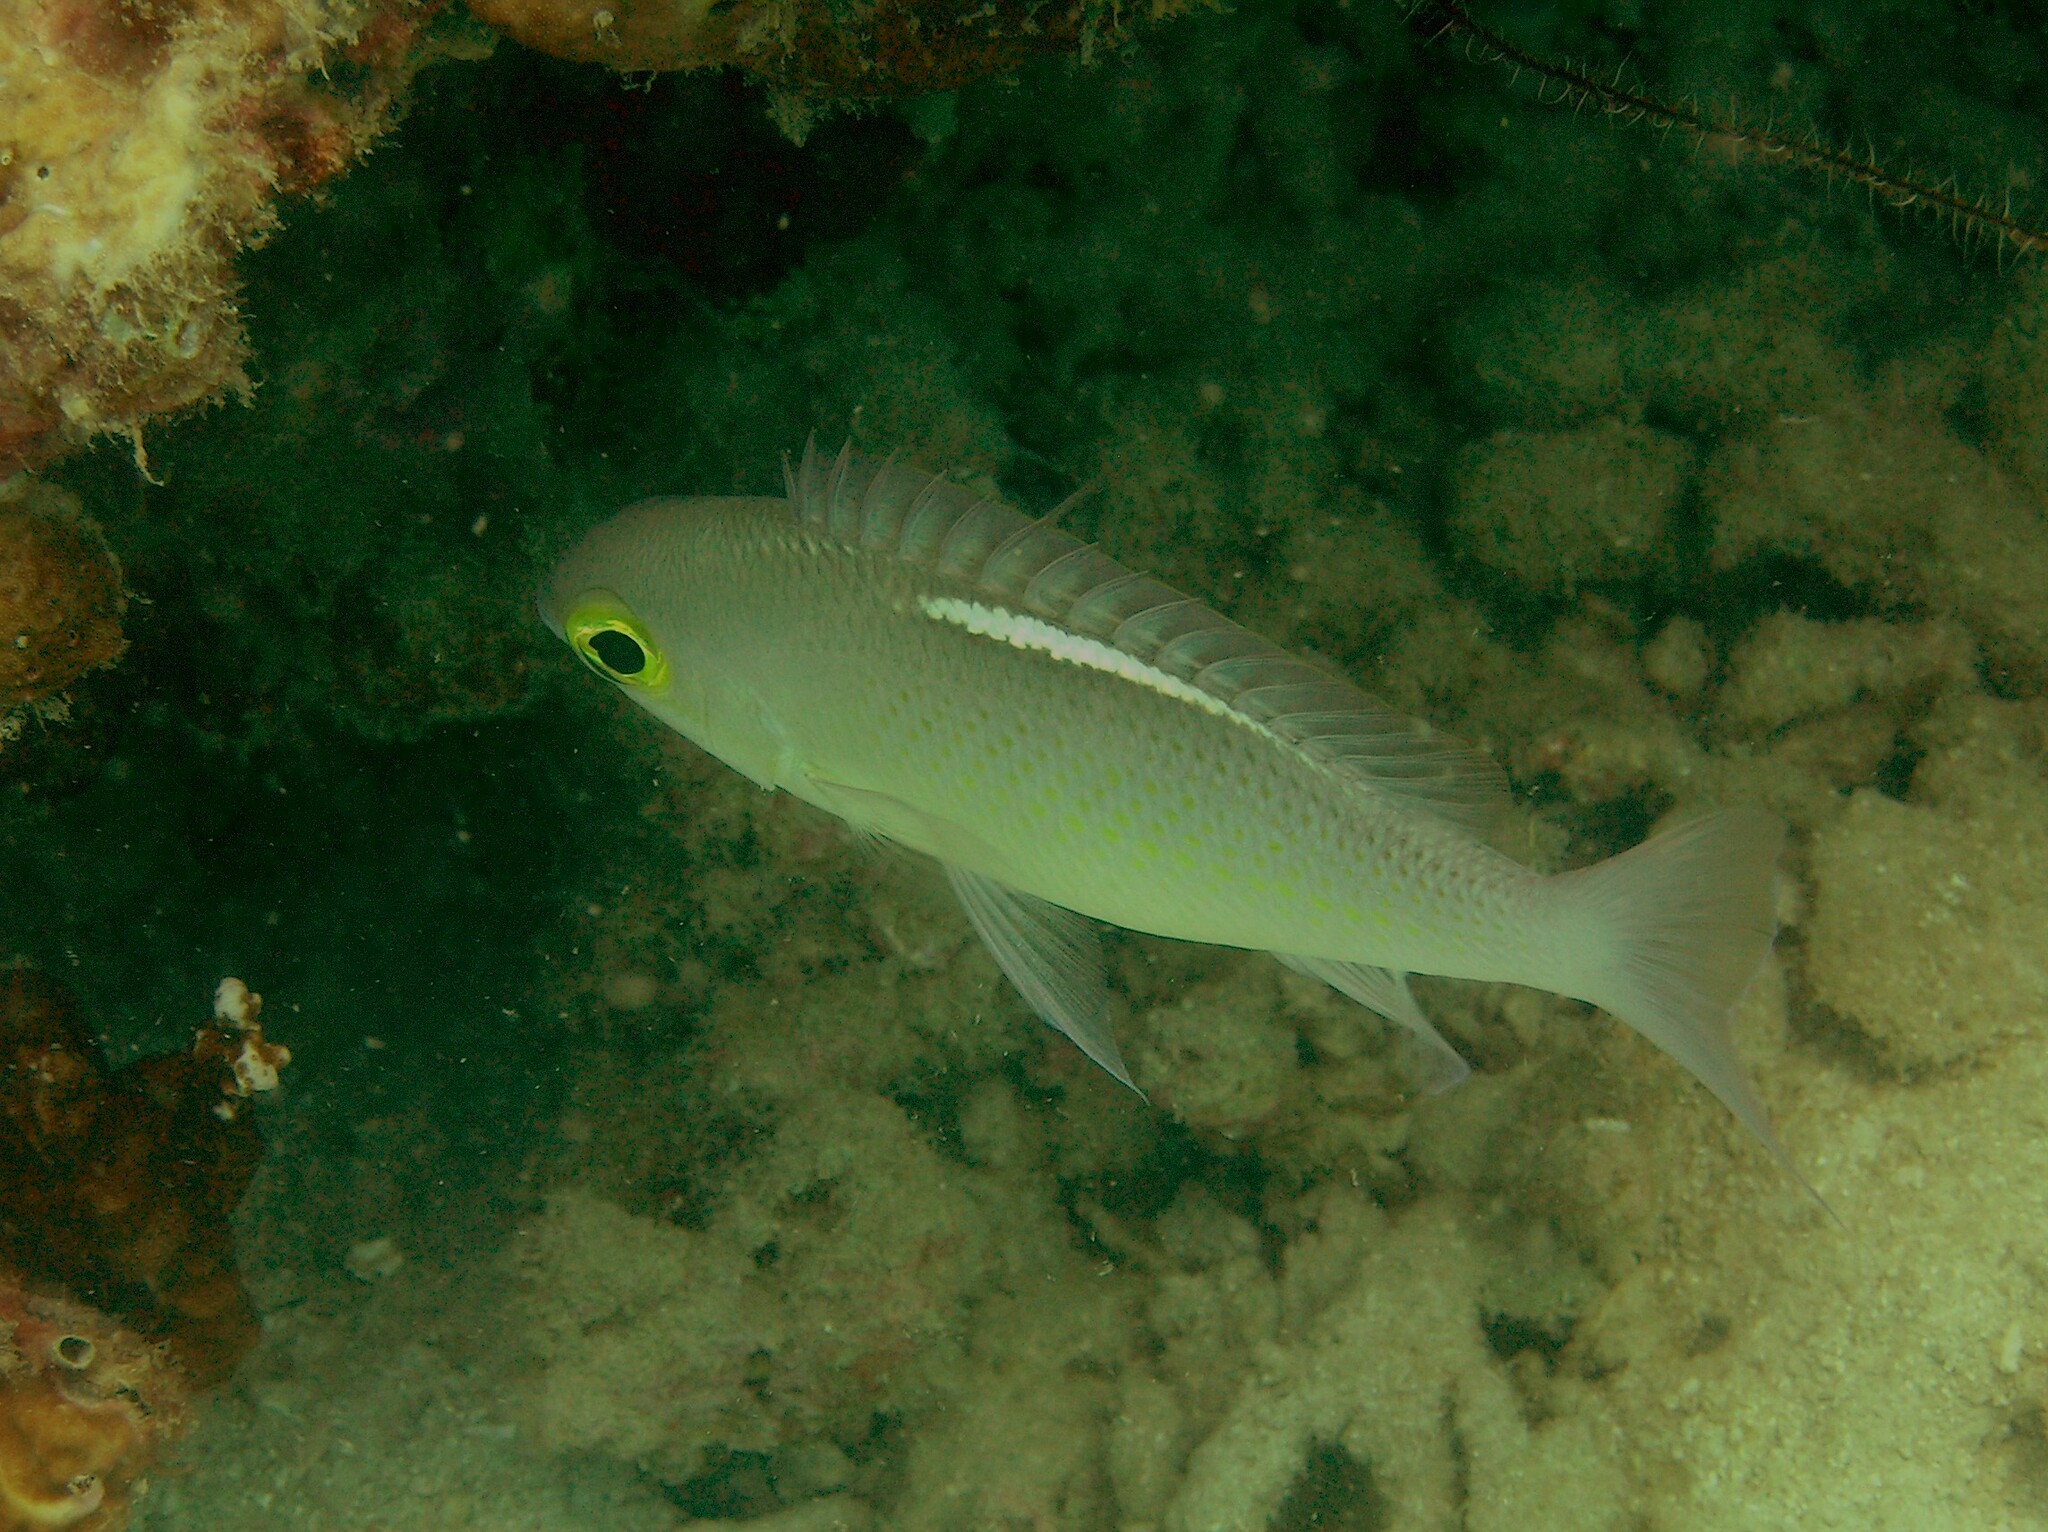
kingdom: Animalia
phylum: Chordata
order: Perciformes
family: Nemipteridae
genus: Scolopsis
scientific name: Scolopsis ciliata
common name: Ciliate spinecheek
